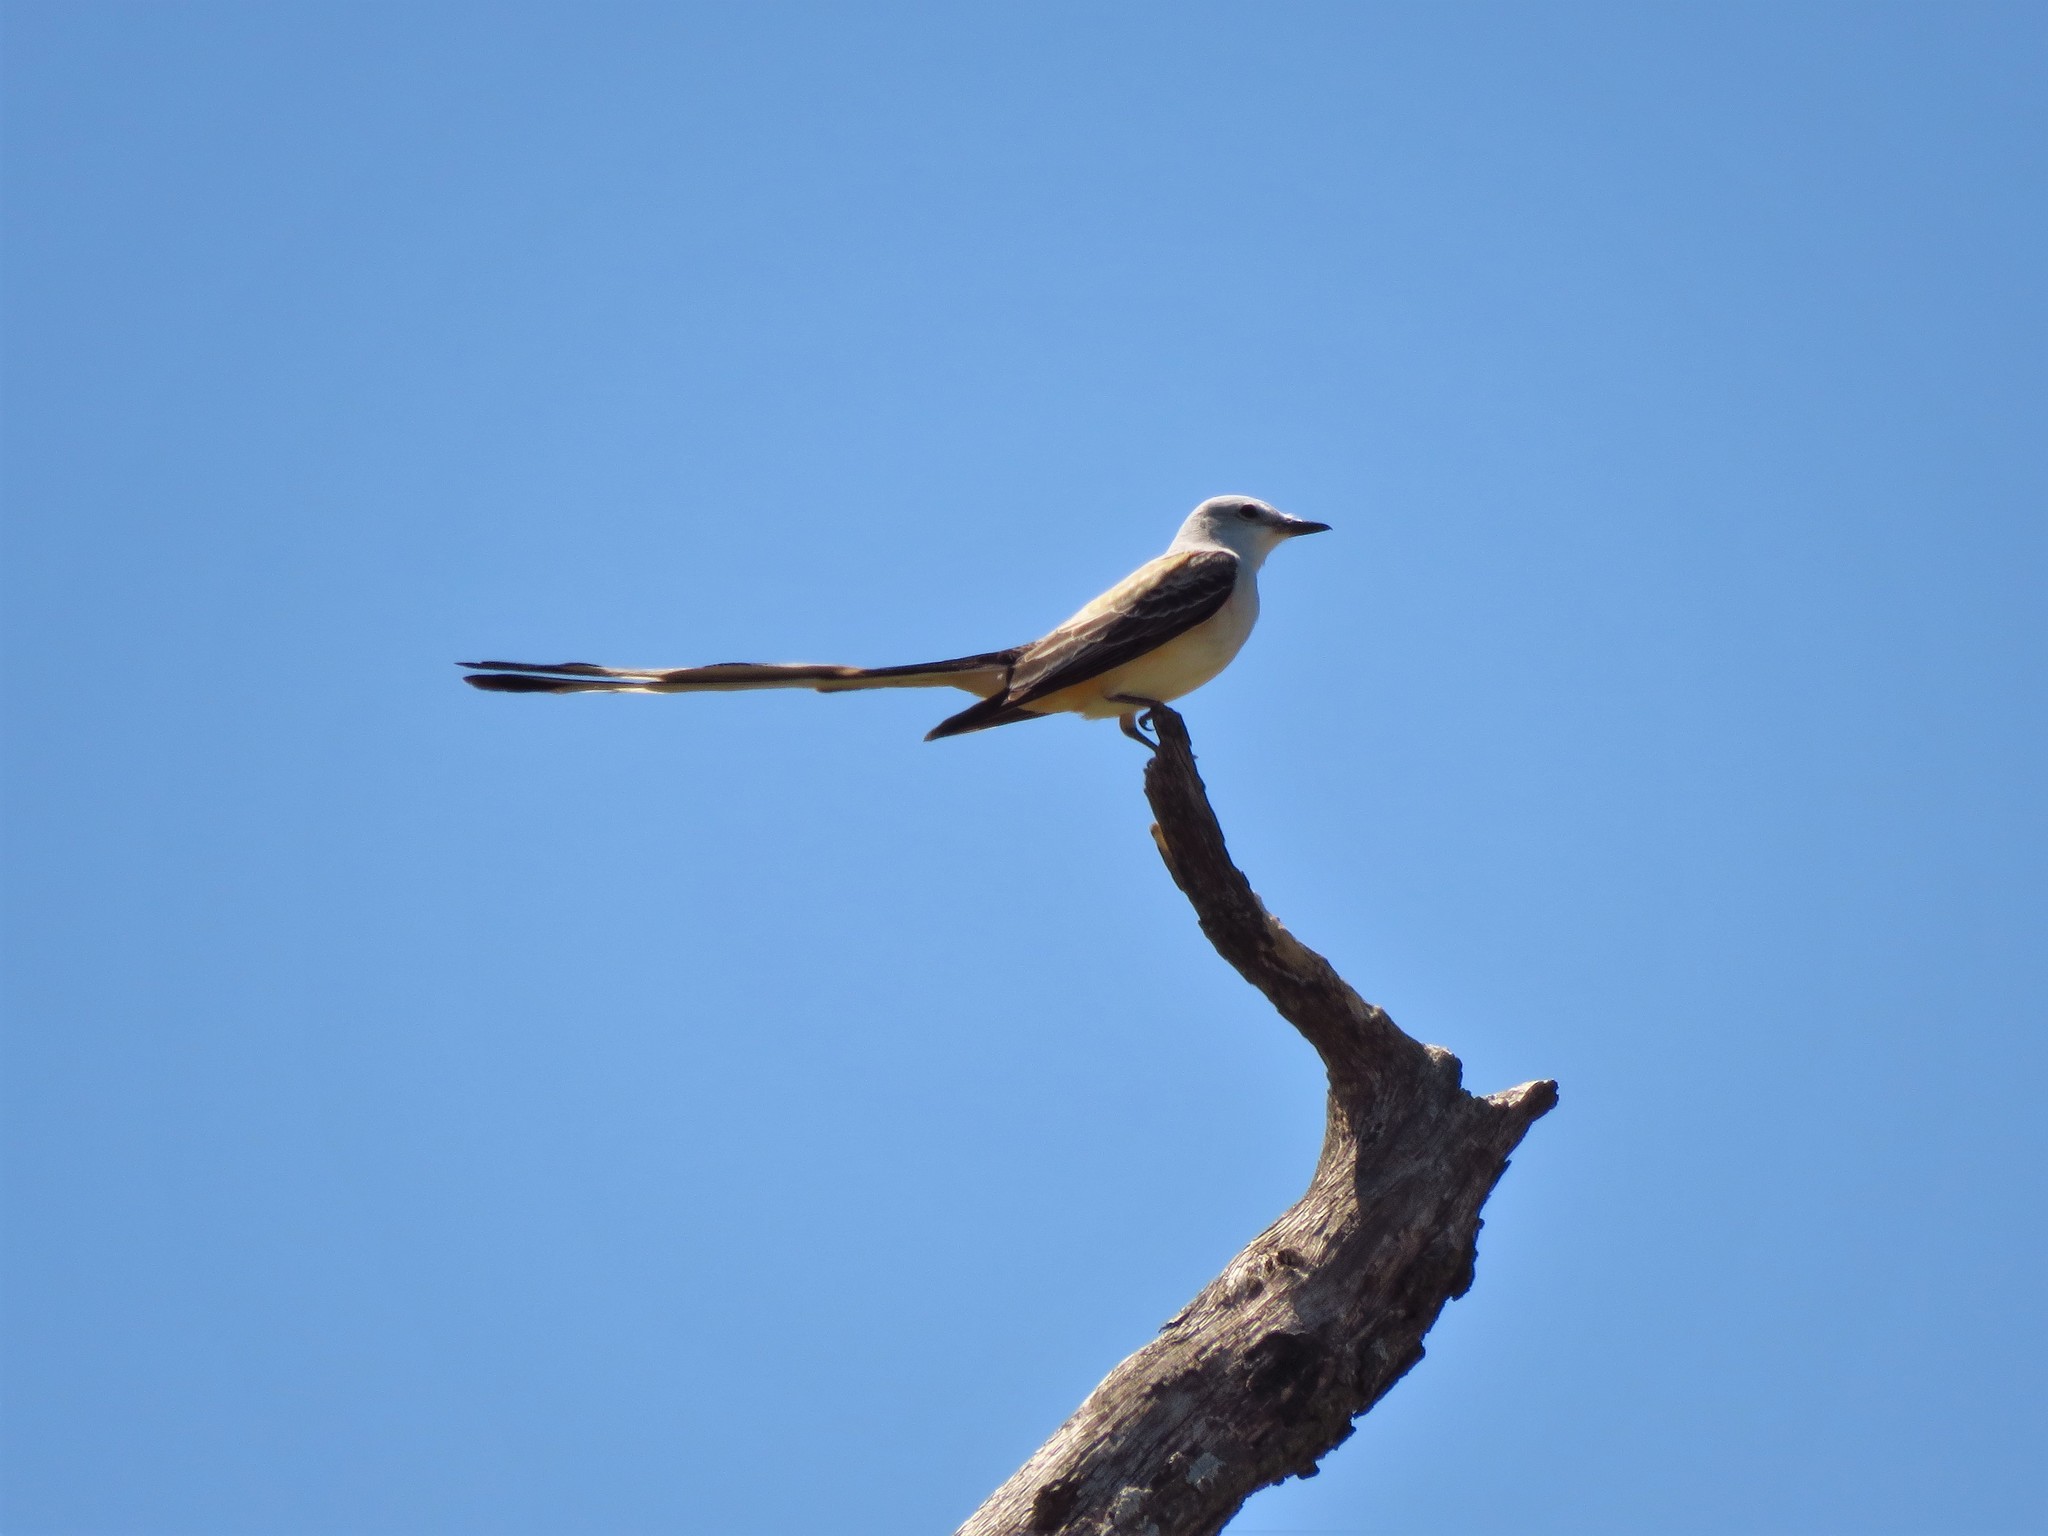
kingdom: Animalia
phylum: Chordata
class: Aves
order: Passeriformes
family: Tyrannidae
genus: Tyrannus
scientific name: Tyrannus forficatus
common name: Scissor-tailed flycatcher
